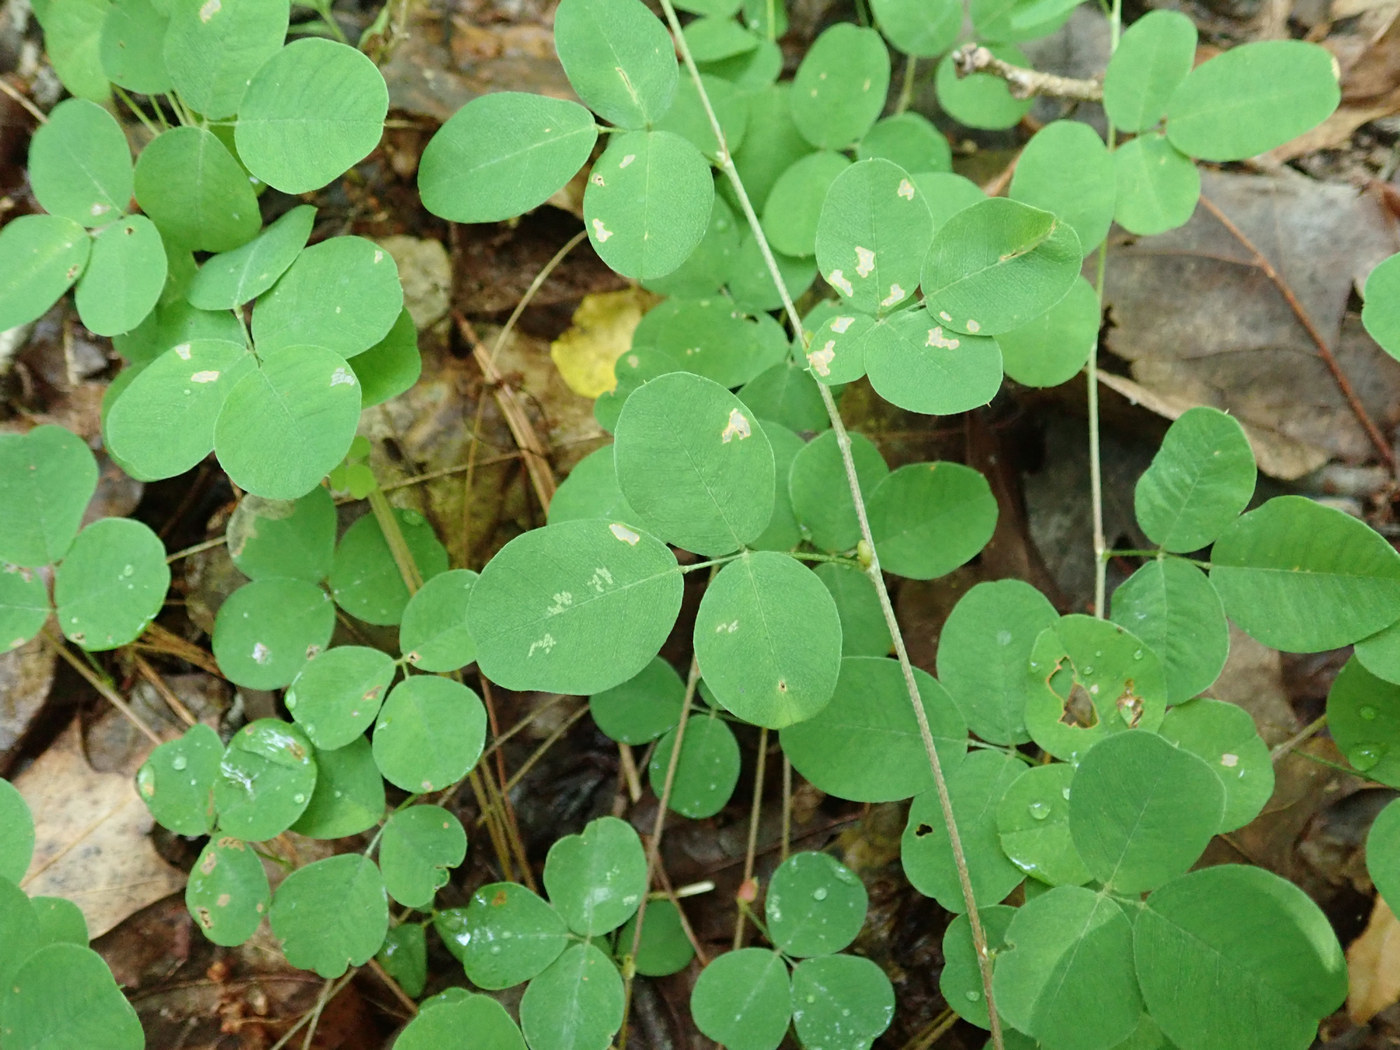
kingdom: Plantae
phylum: Tracheophyta
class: Magnoliopsida
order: Fabales
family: Fabaceae
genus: Lespedeza
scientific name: Lespedeza repens
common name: Creeping bush-clover
